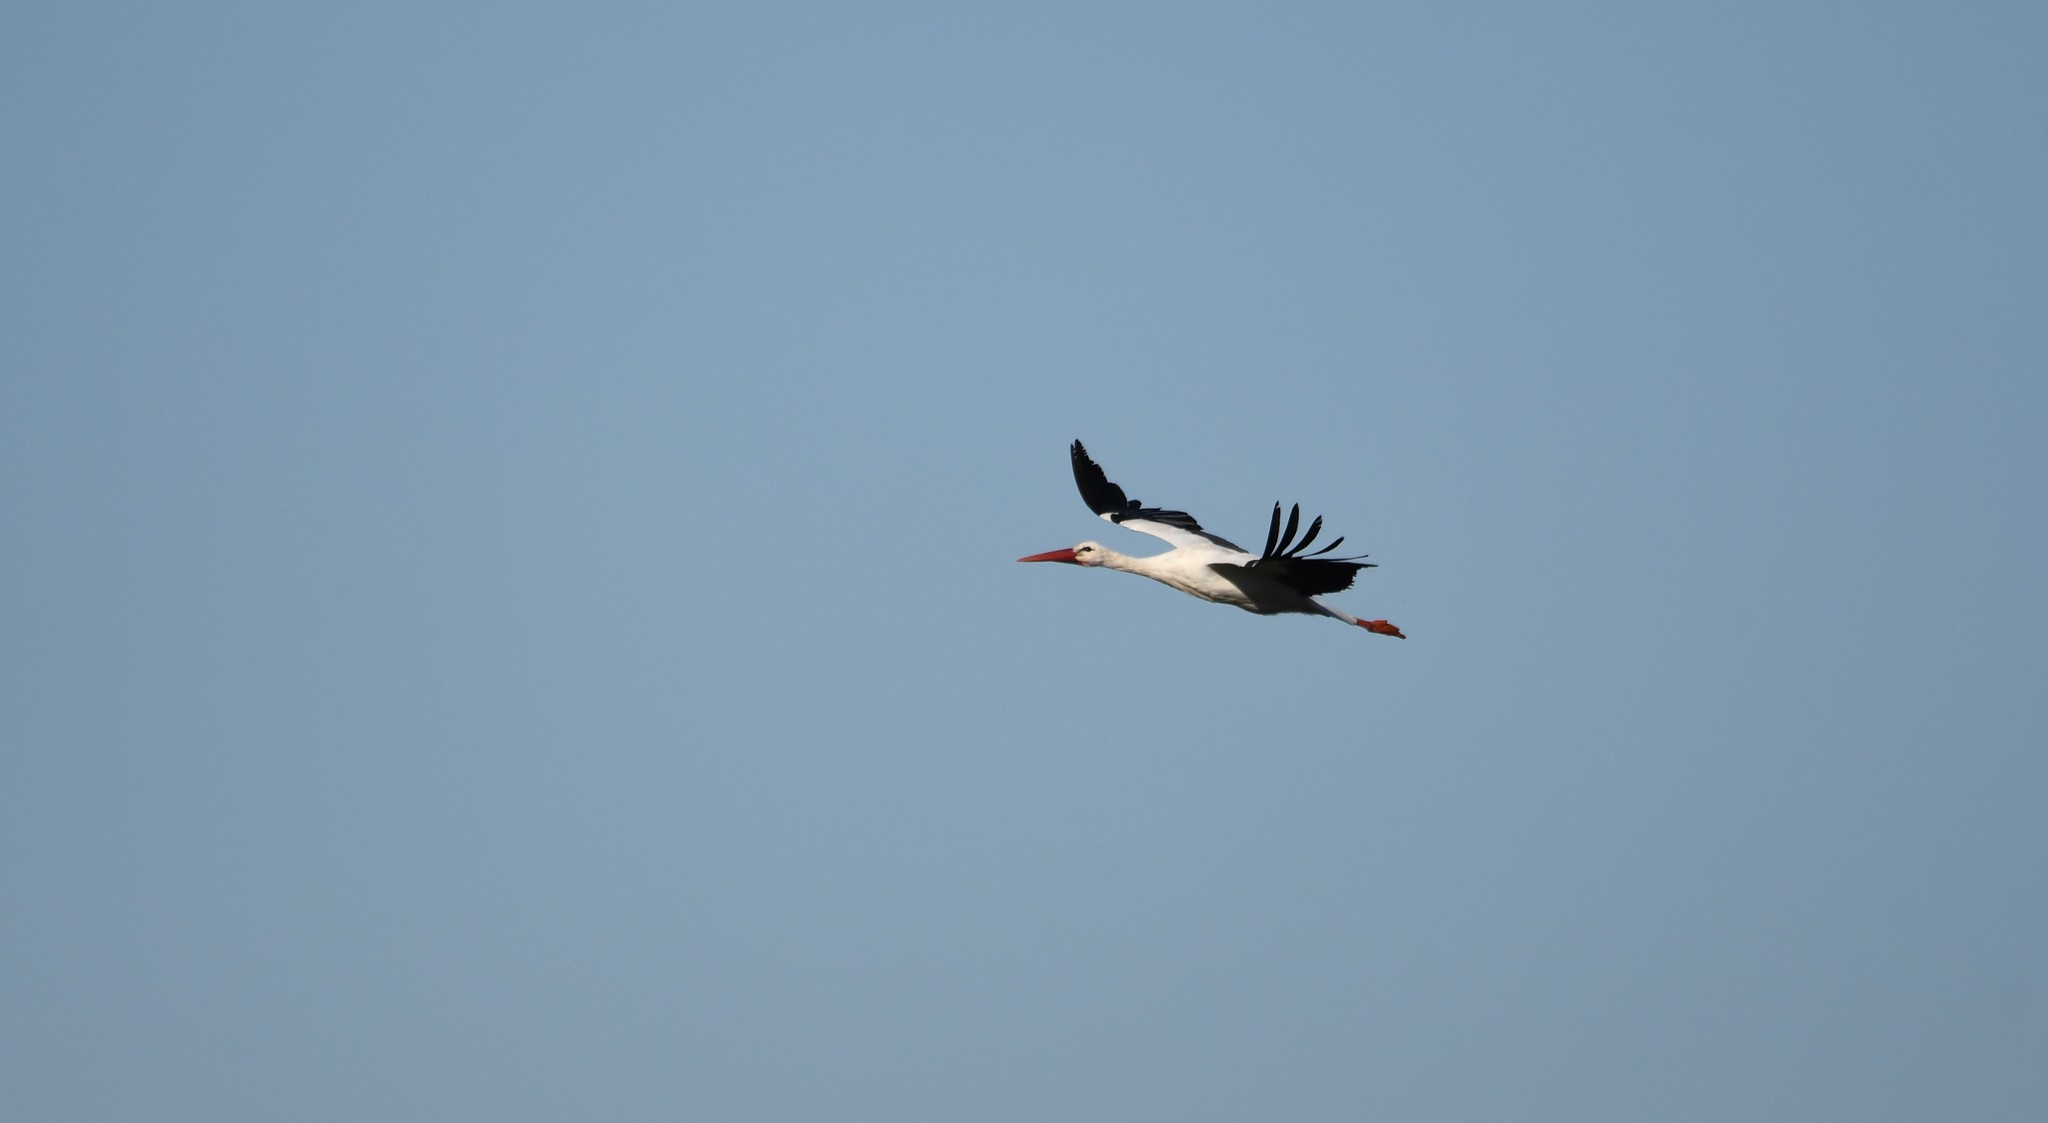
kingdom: Animalia
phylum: Chordata
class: Aves
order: Ciconiiformes
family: Ciconiidae
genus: Ciconia
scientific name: Ciconia ciconia
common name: White stork
